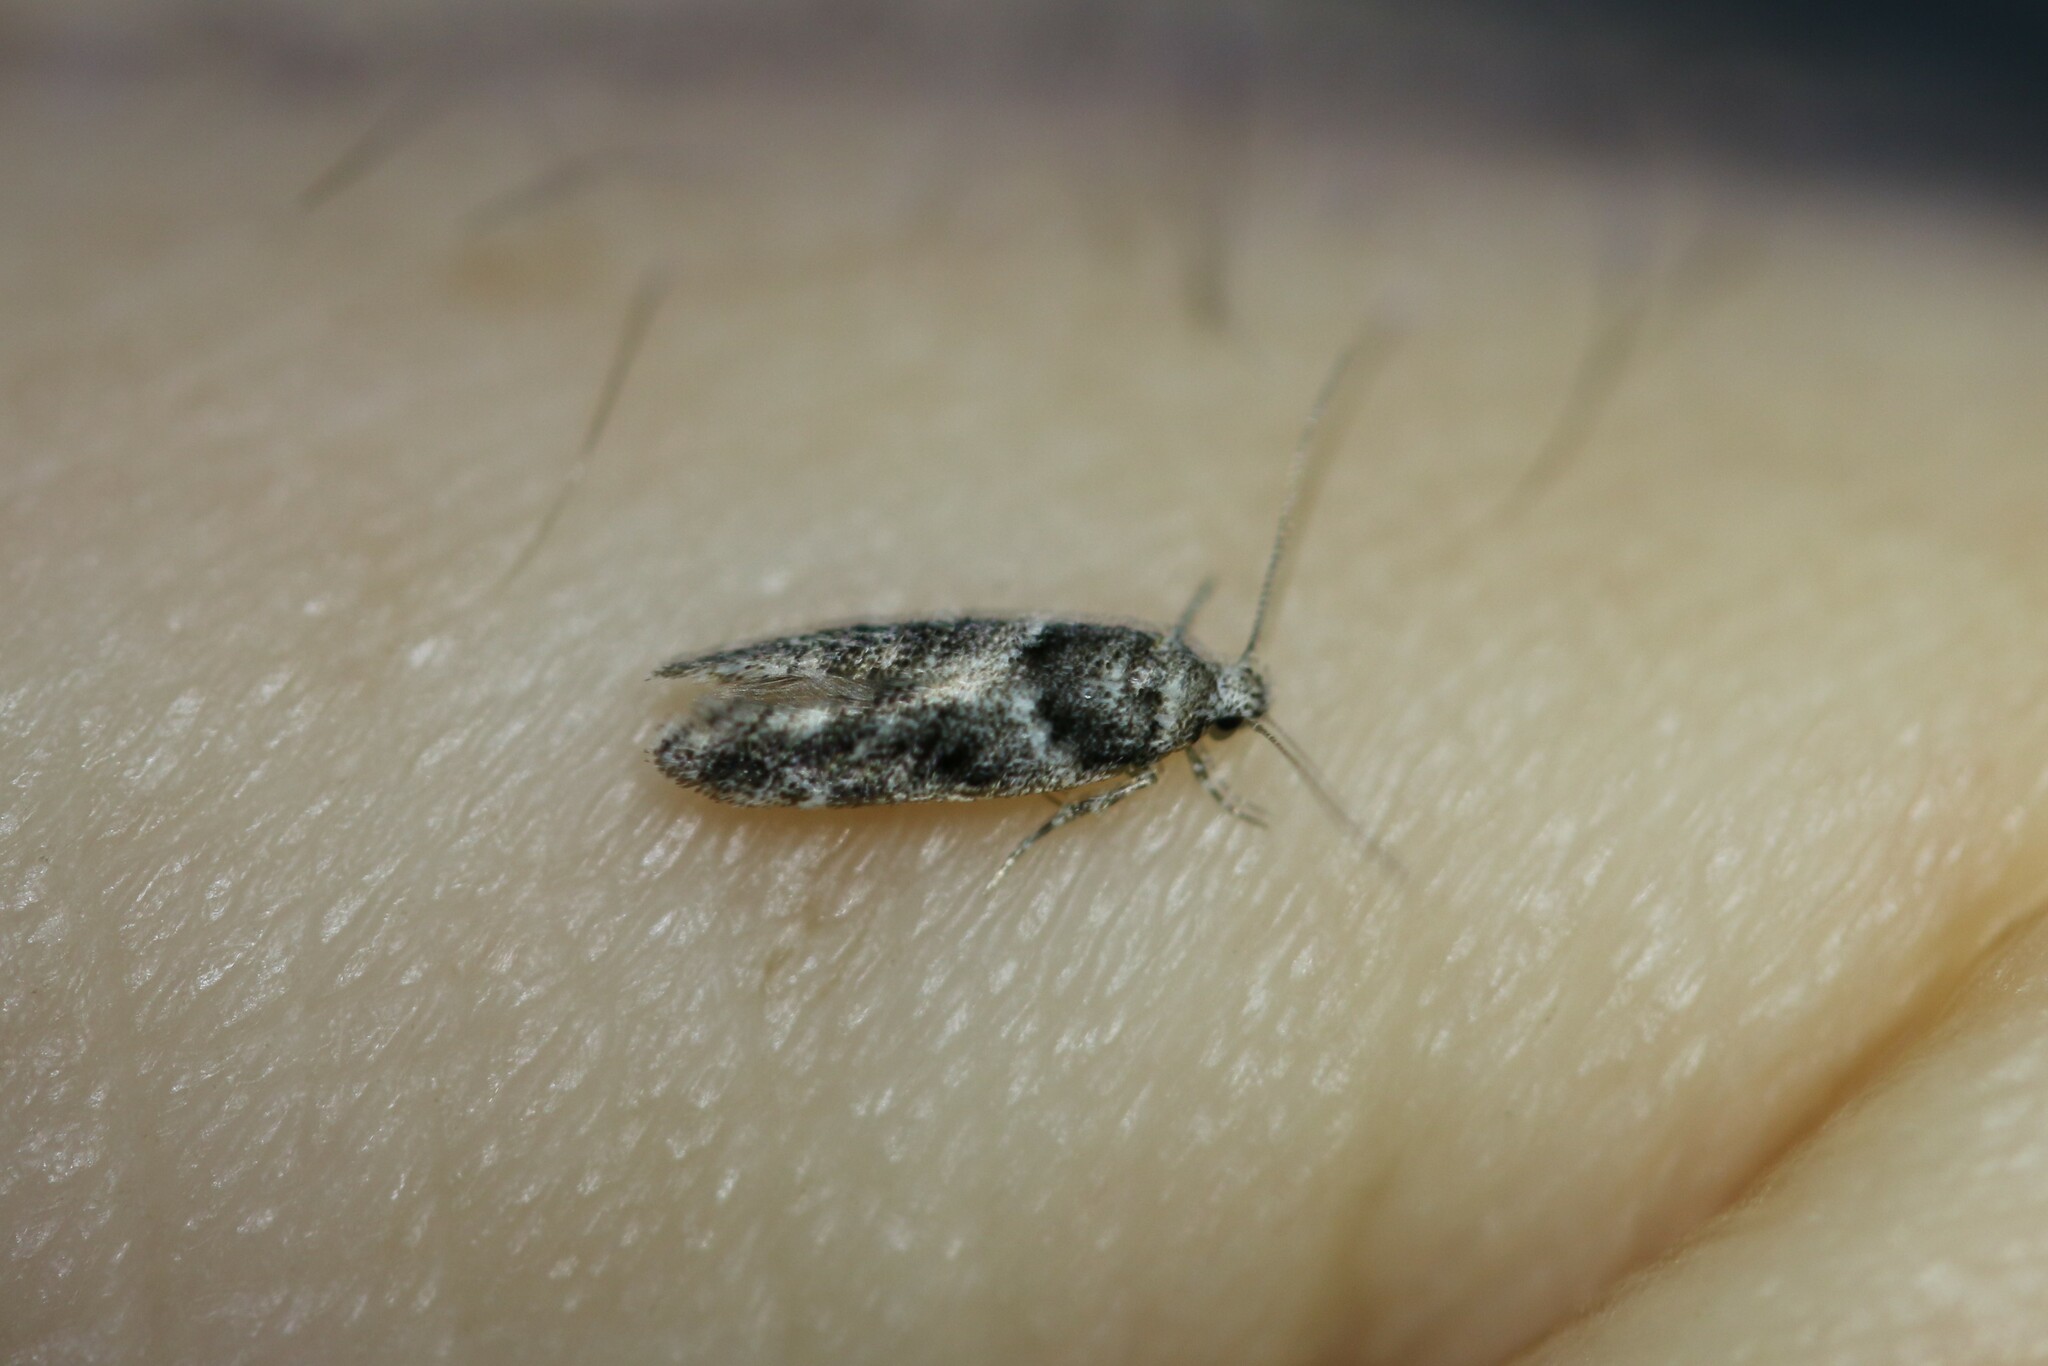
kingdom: Animalia
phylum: Arthropoda
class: Insecta
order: Lepidoptera
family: Gelechiidae
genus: Recurvaria
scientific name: Recurvaria nanella
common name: Gelechiid moth
